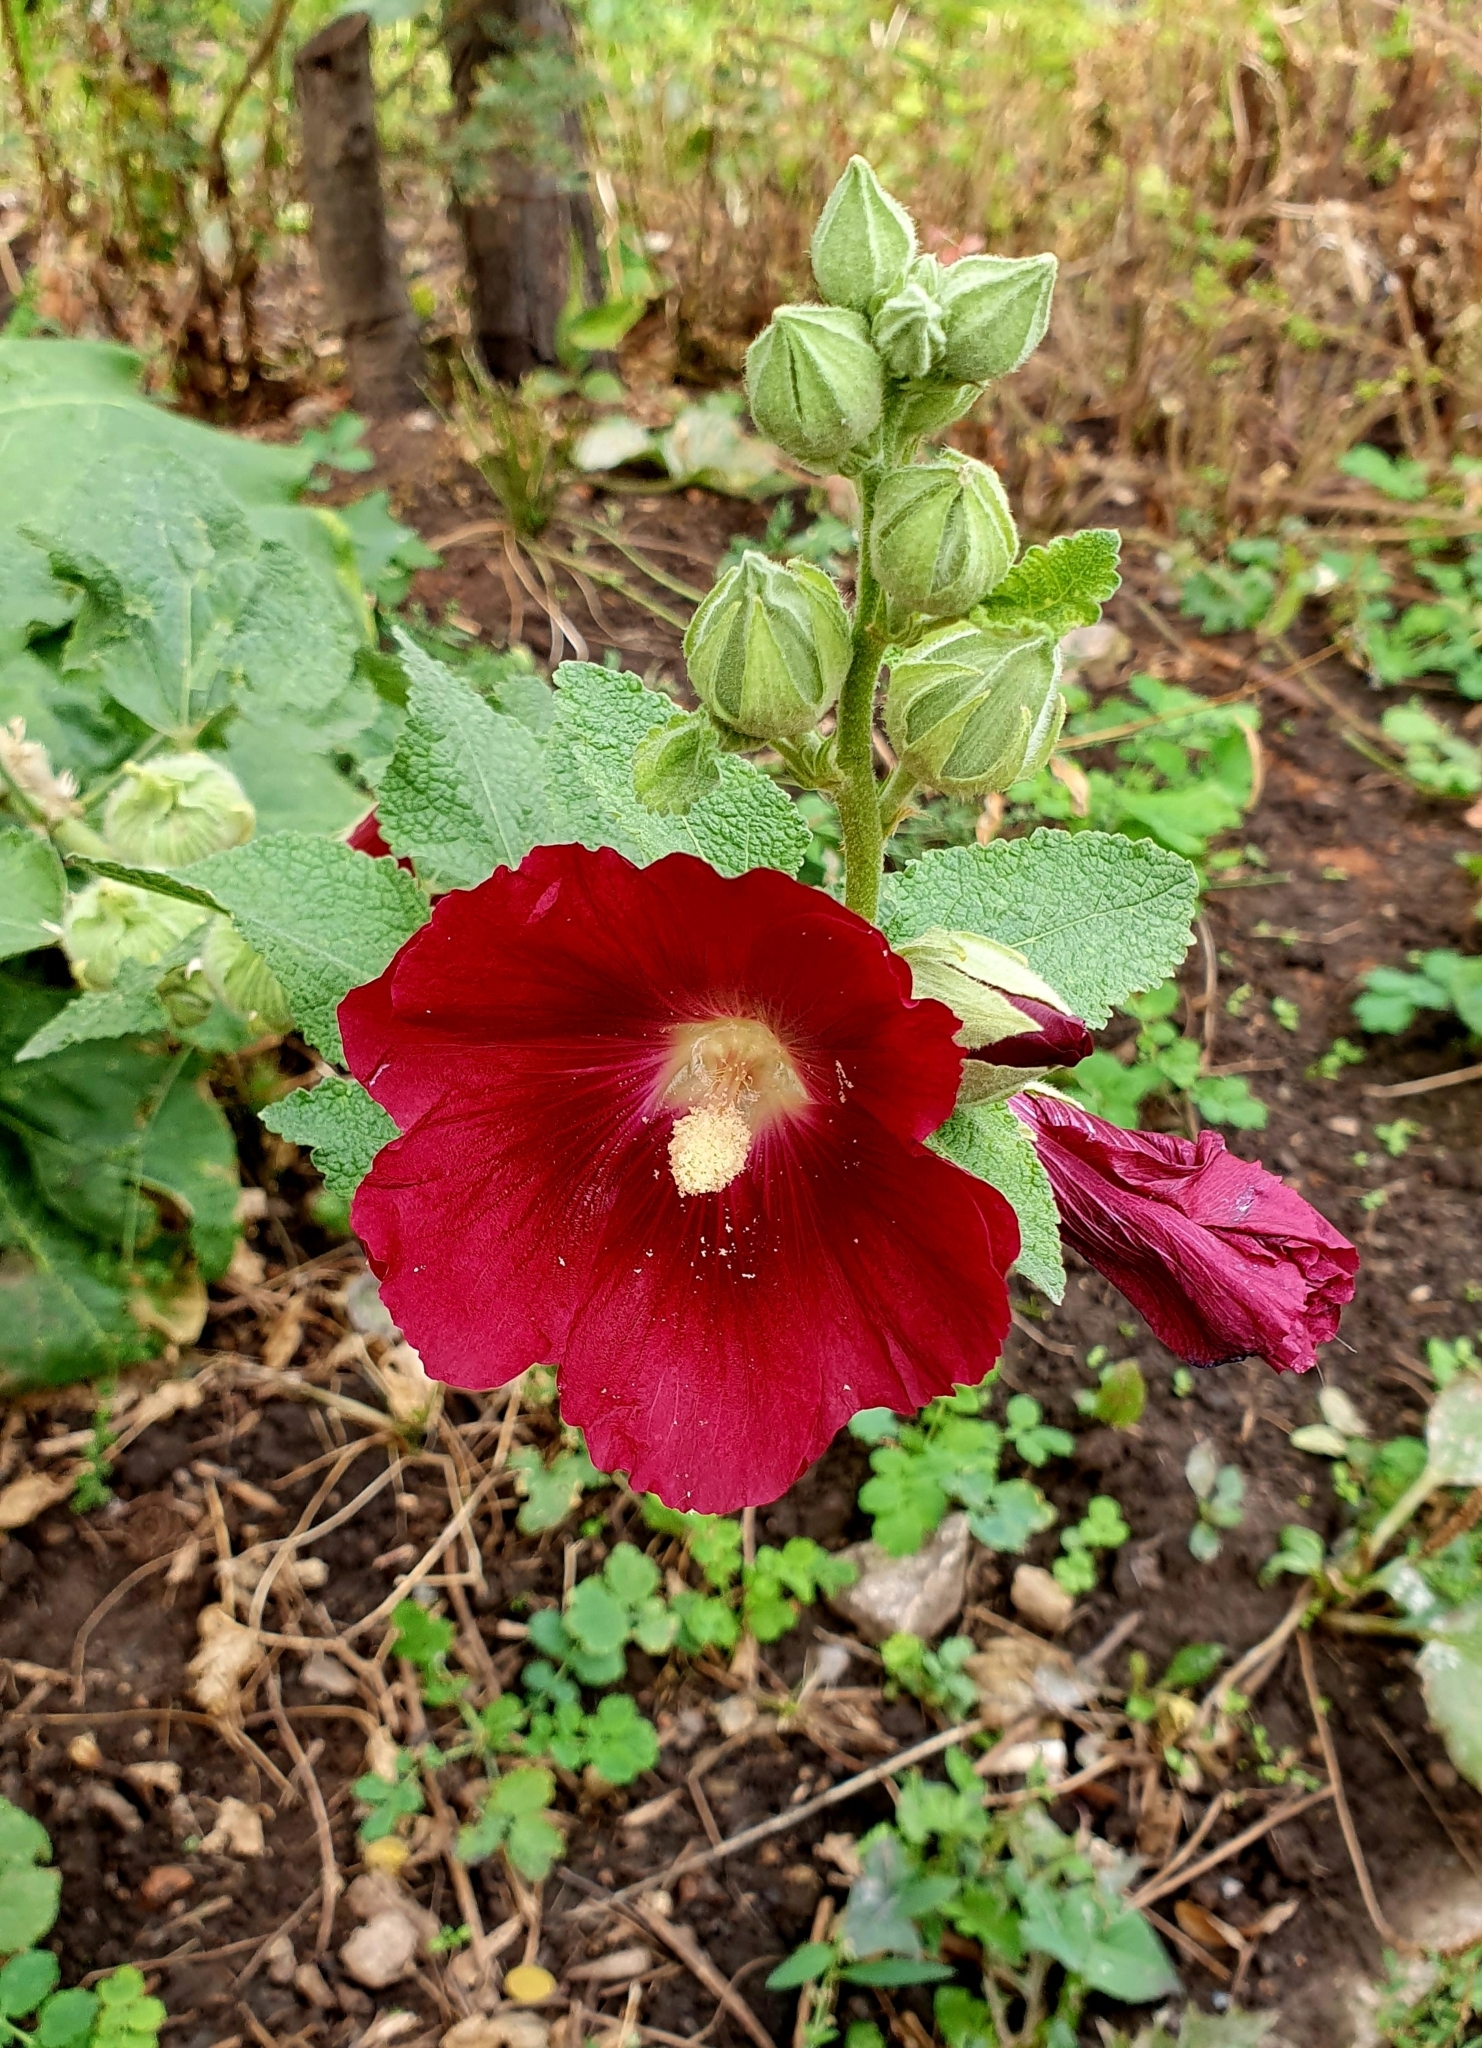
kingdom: Plantae
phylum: Tracheophyta
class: Magnoliopsida
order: Malvales
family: Malvaceae
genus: Alcea
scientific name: Alcea rosea
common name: Hollyhock
